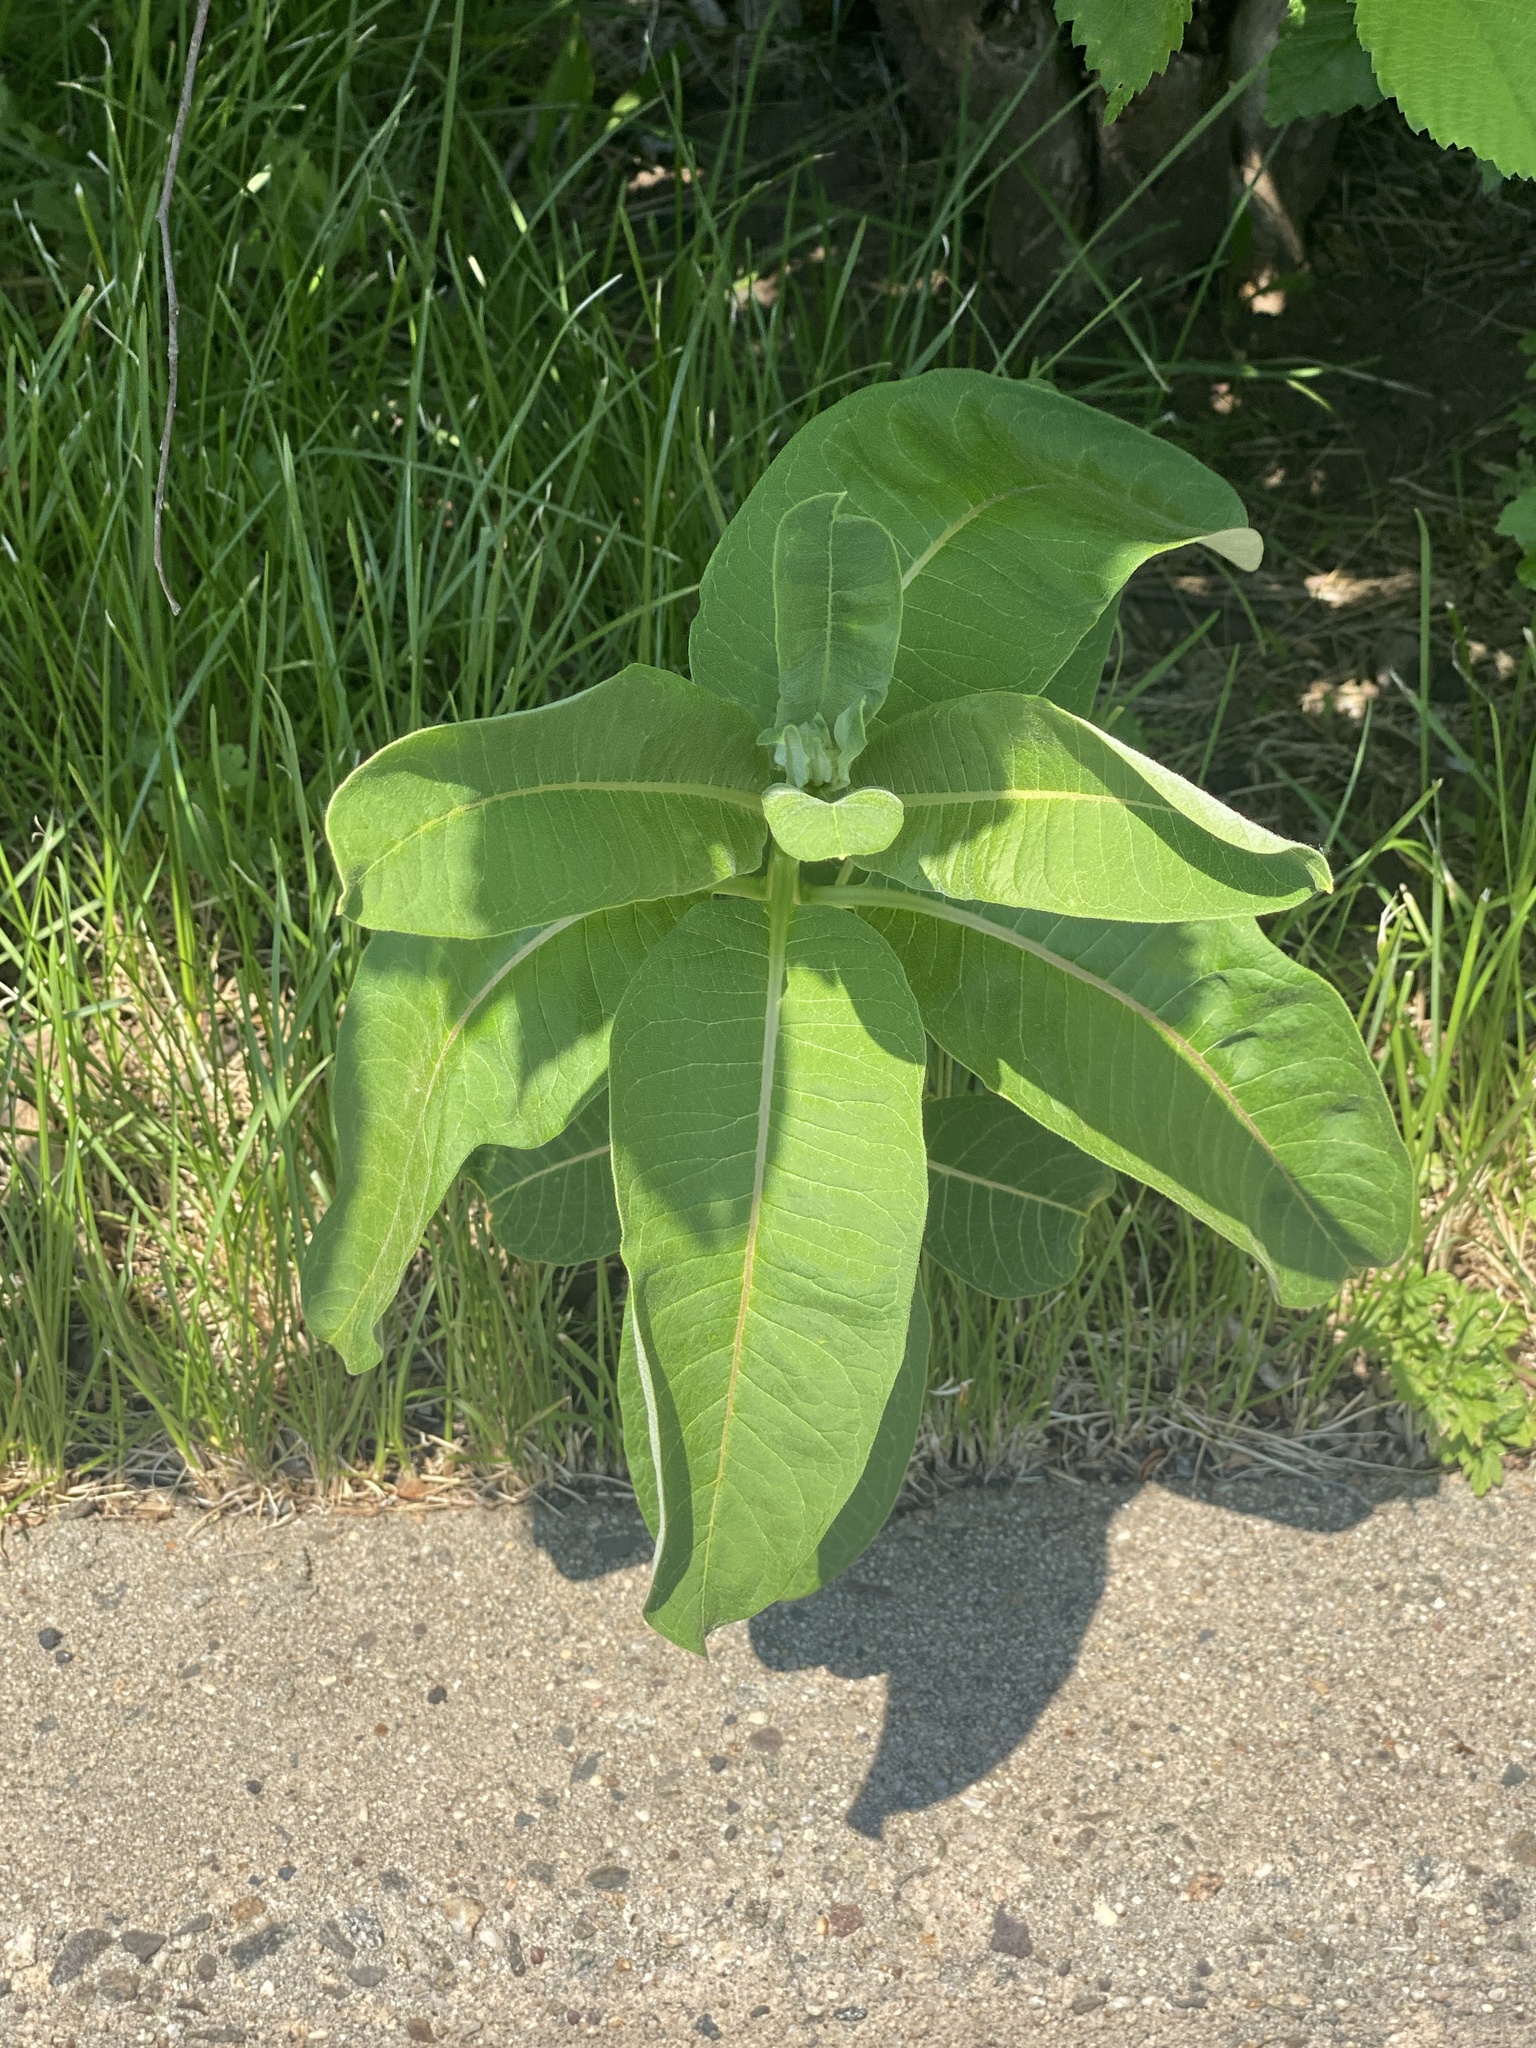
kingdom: Plantae
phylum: Tracheophyta
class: Magnoliopsida
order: Gentianales
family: Apocynaceae
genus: Asclepias
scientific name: Asclepias syriaca
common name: Common milkweed
